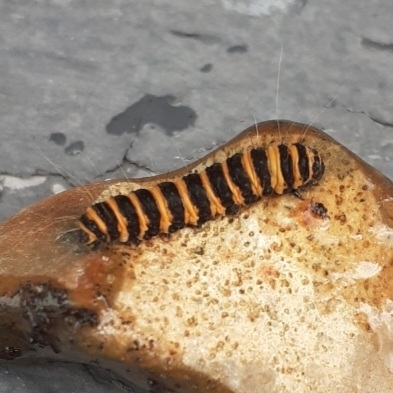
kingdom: Animalia
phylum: Arthropoda
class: Insecta
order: Lepidoptera
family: Erebidae
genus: Tyria
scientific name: Tyria jacobaeae
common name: Cinnabar
